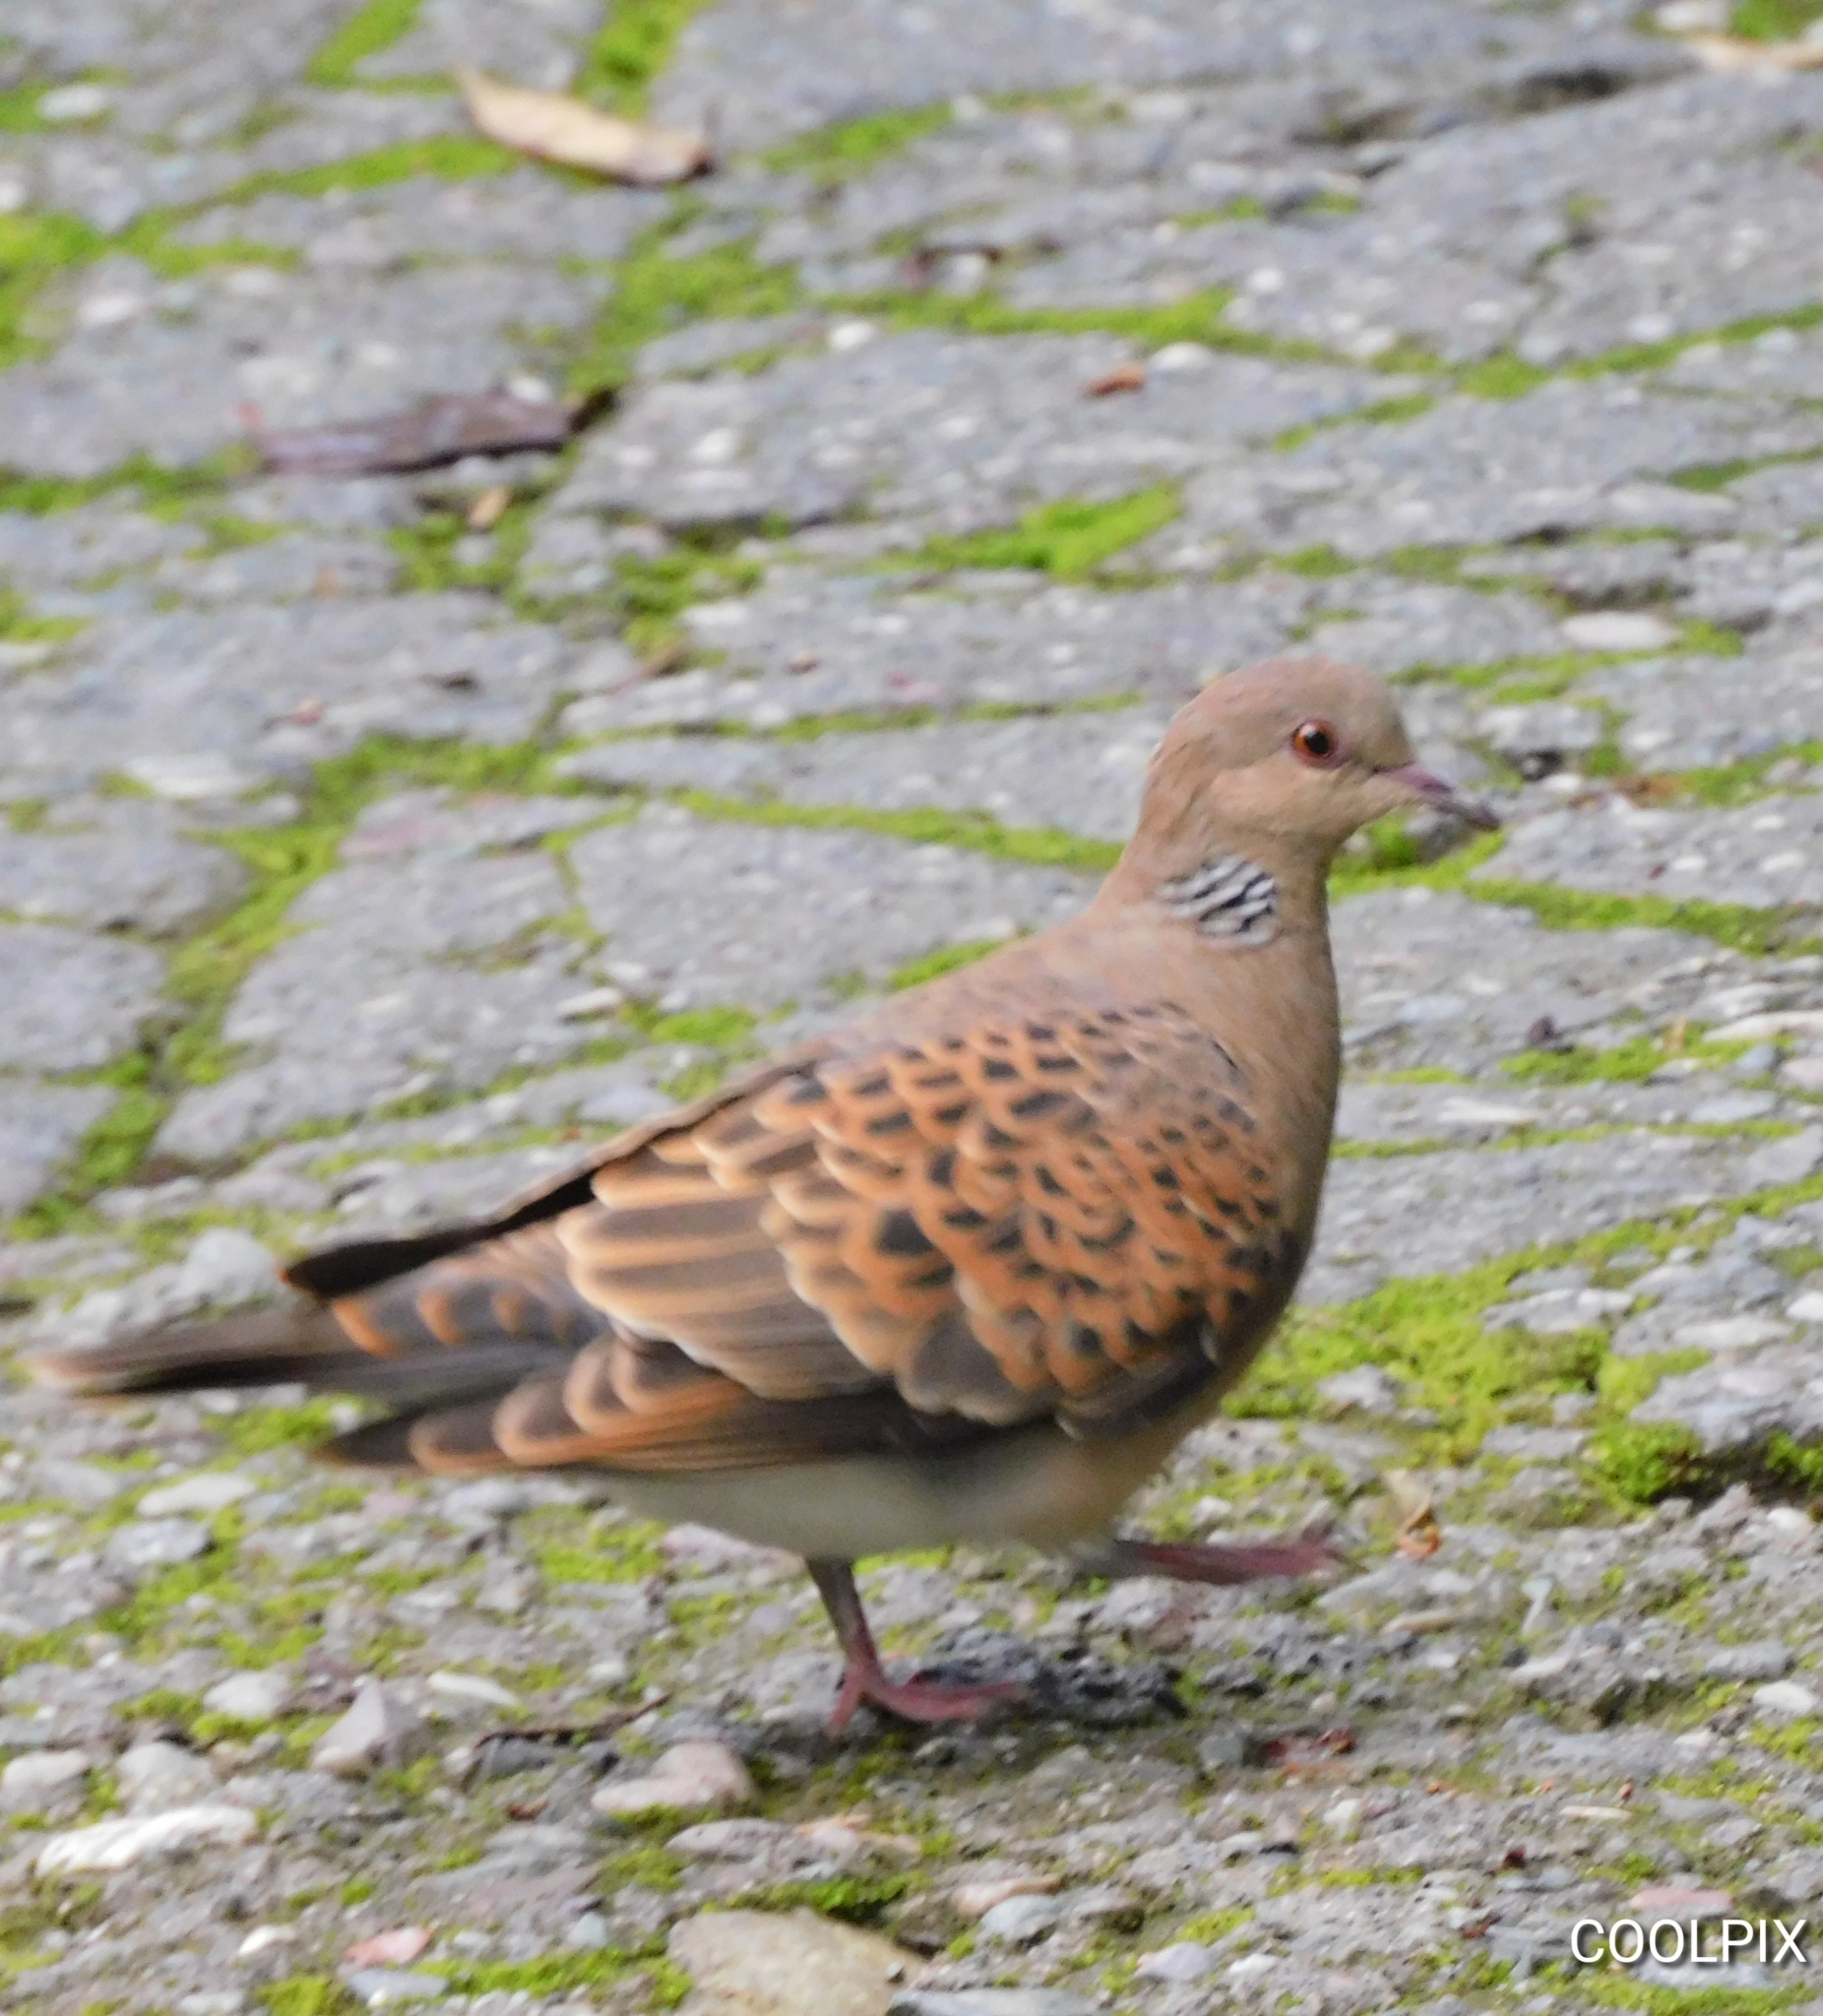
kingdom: Animalia
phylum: Chordata
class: Aves
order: Columbiformes
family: Columbidae
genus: Streptopelia
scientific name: Streptopelia orientalis
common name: Oriental turtle dove
